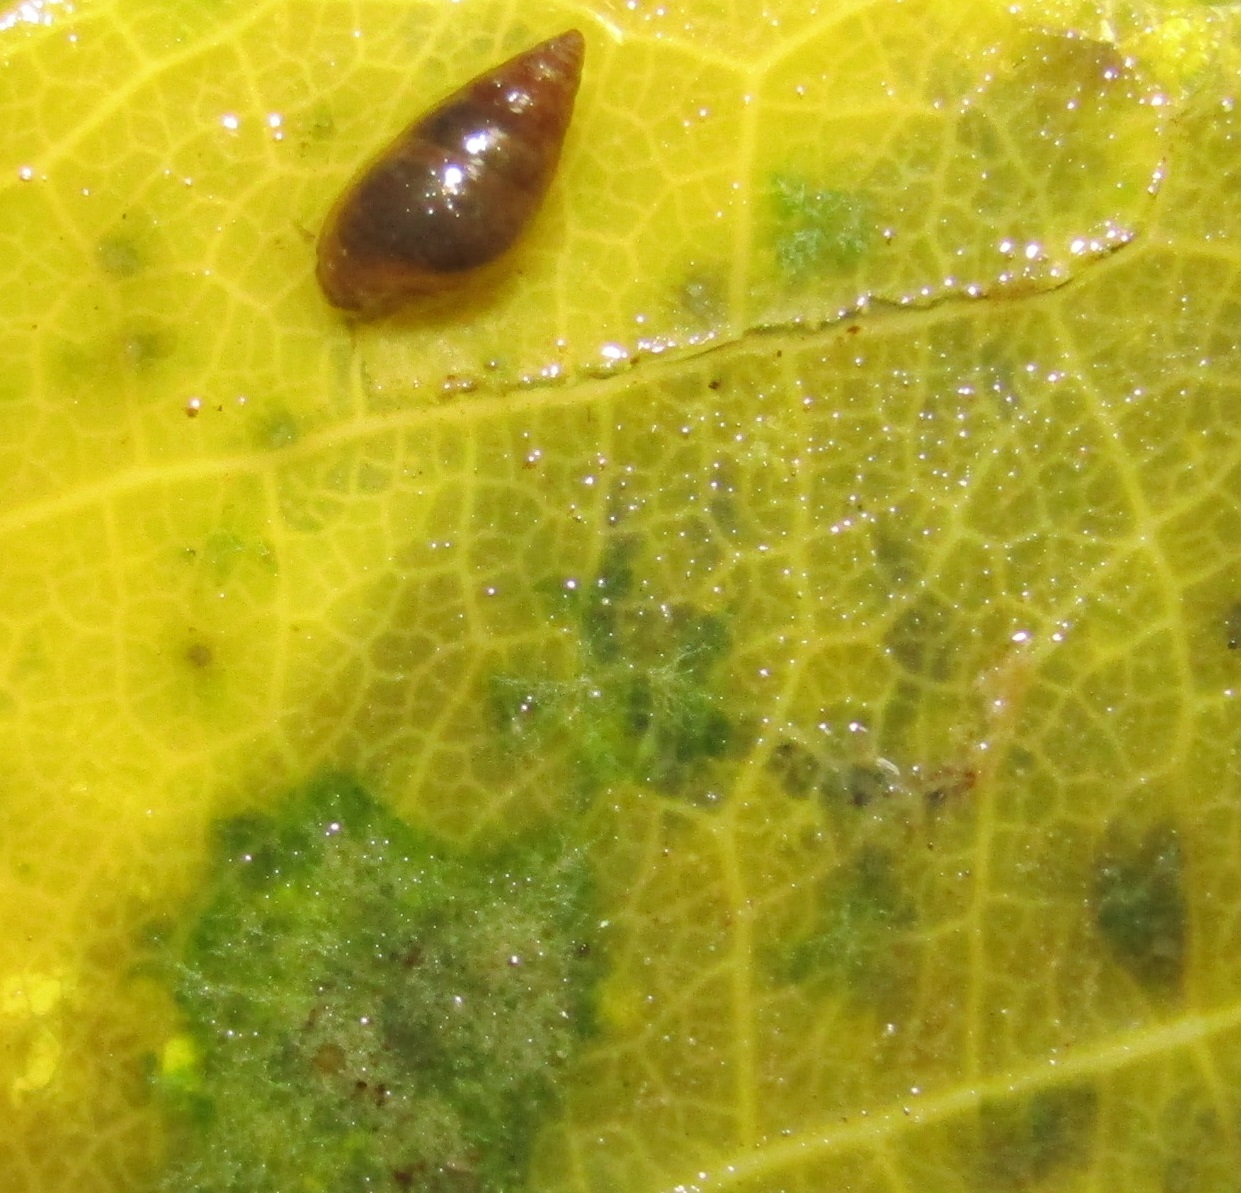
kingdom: Animalia
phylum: Mollusca
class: Gastropoda
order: Littorinimorpha
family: Tateidae
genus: Potamopyrgus
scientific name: Potamopyrgus antipodarum
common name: Jenkins' spire snail
